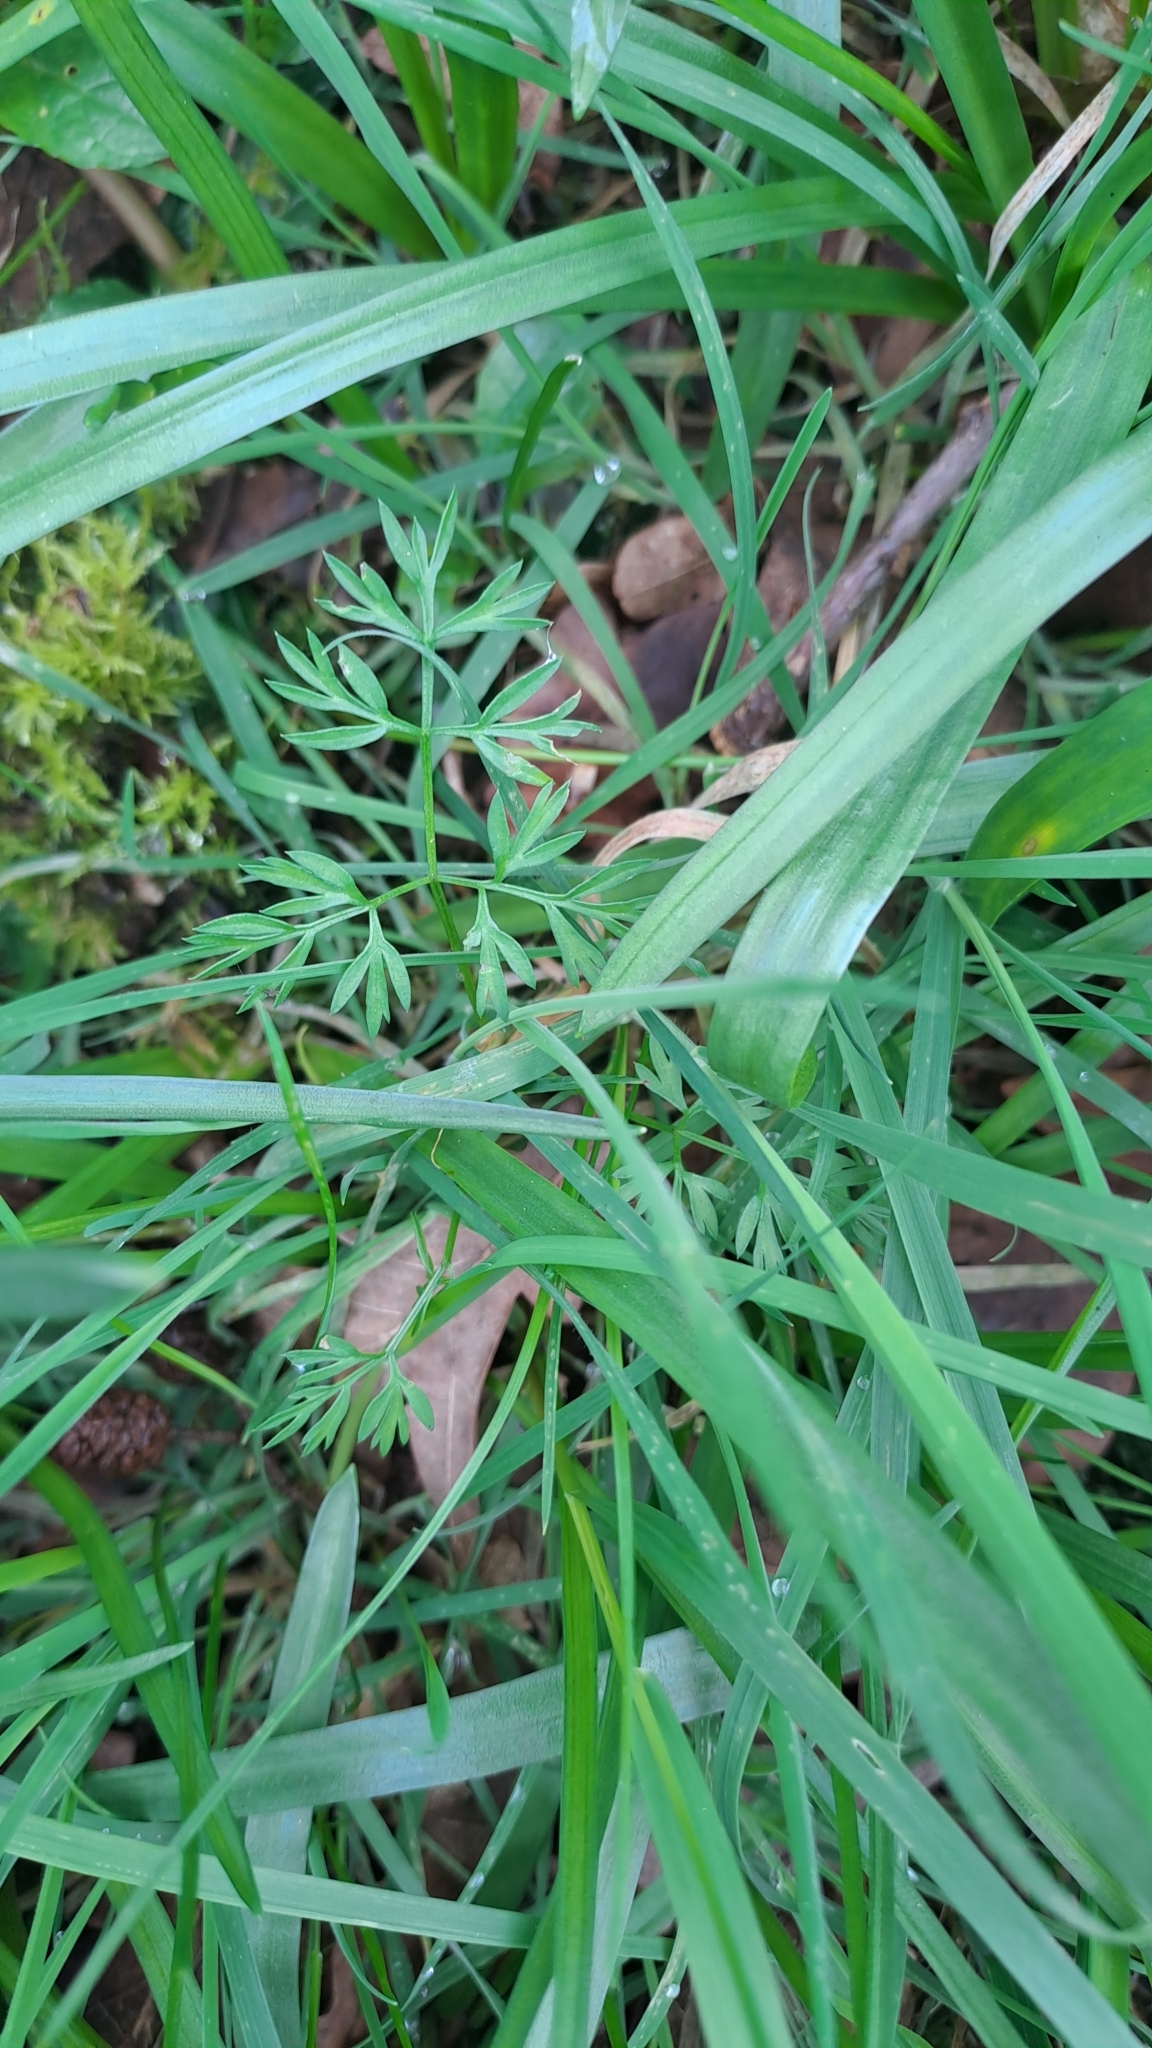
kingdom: Plantae
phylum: Tracheophyta
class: Magnoliopsida
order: Apiales
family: Apiaceae
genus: Conopodium
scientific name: Conopodium majus
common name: Pignut
